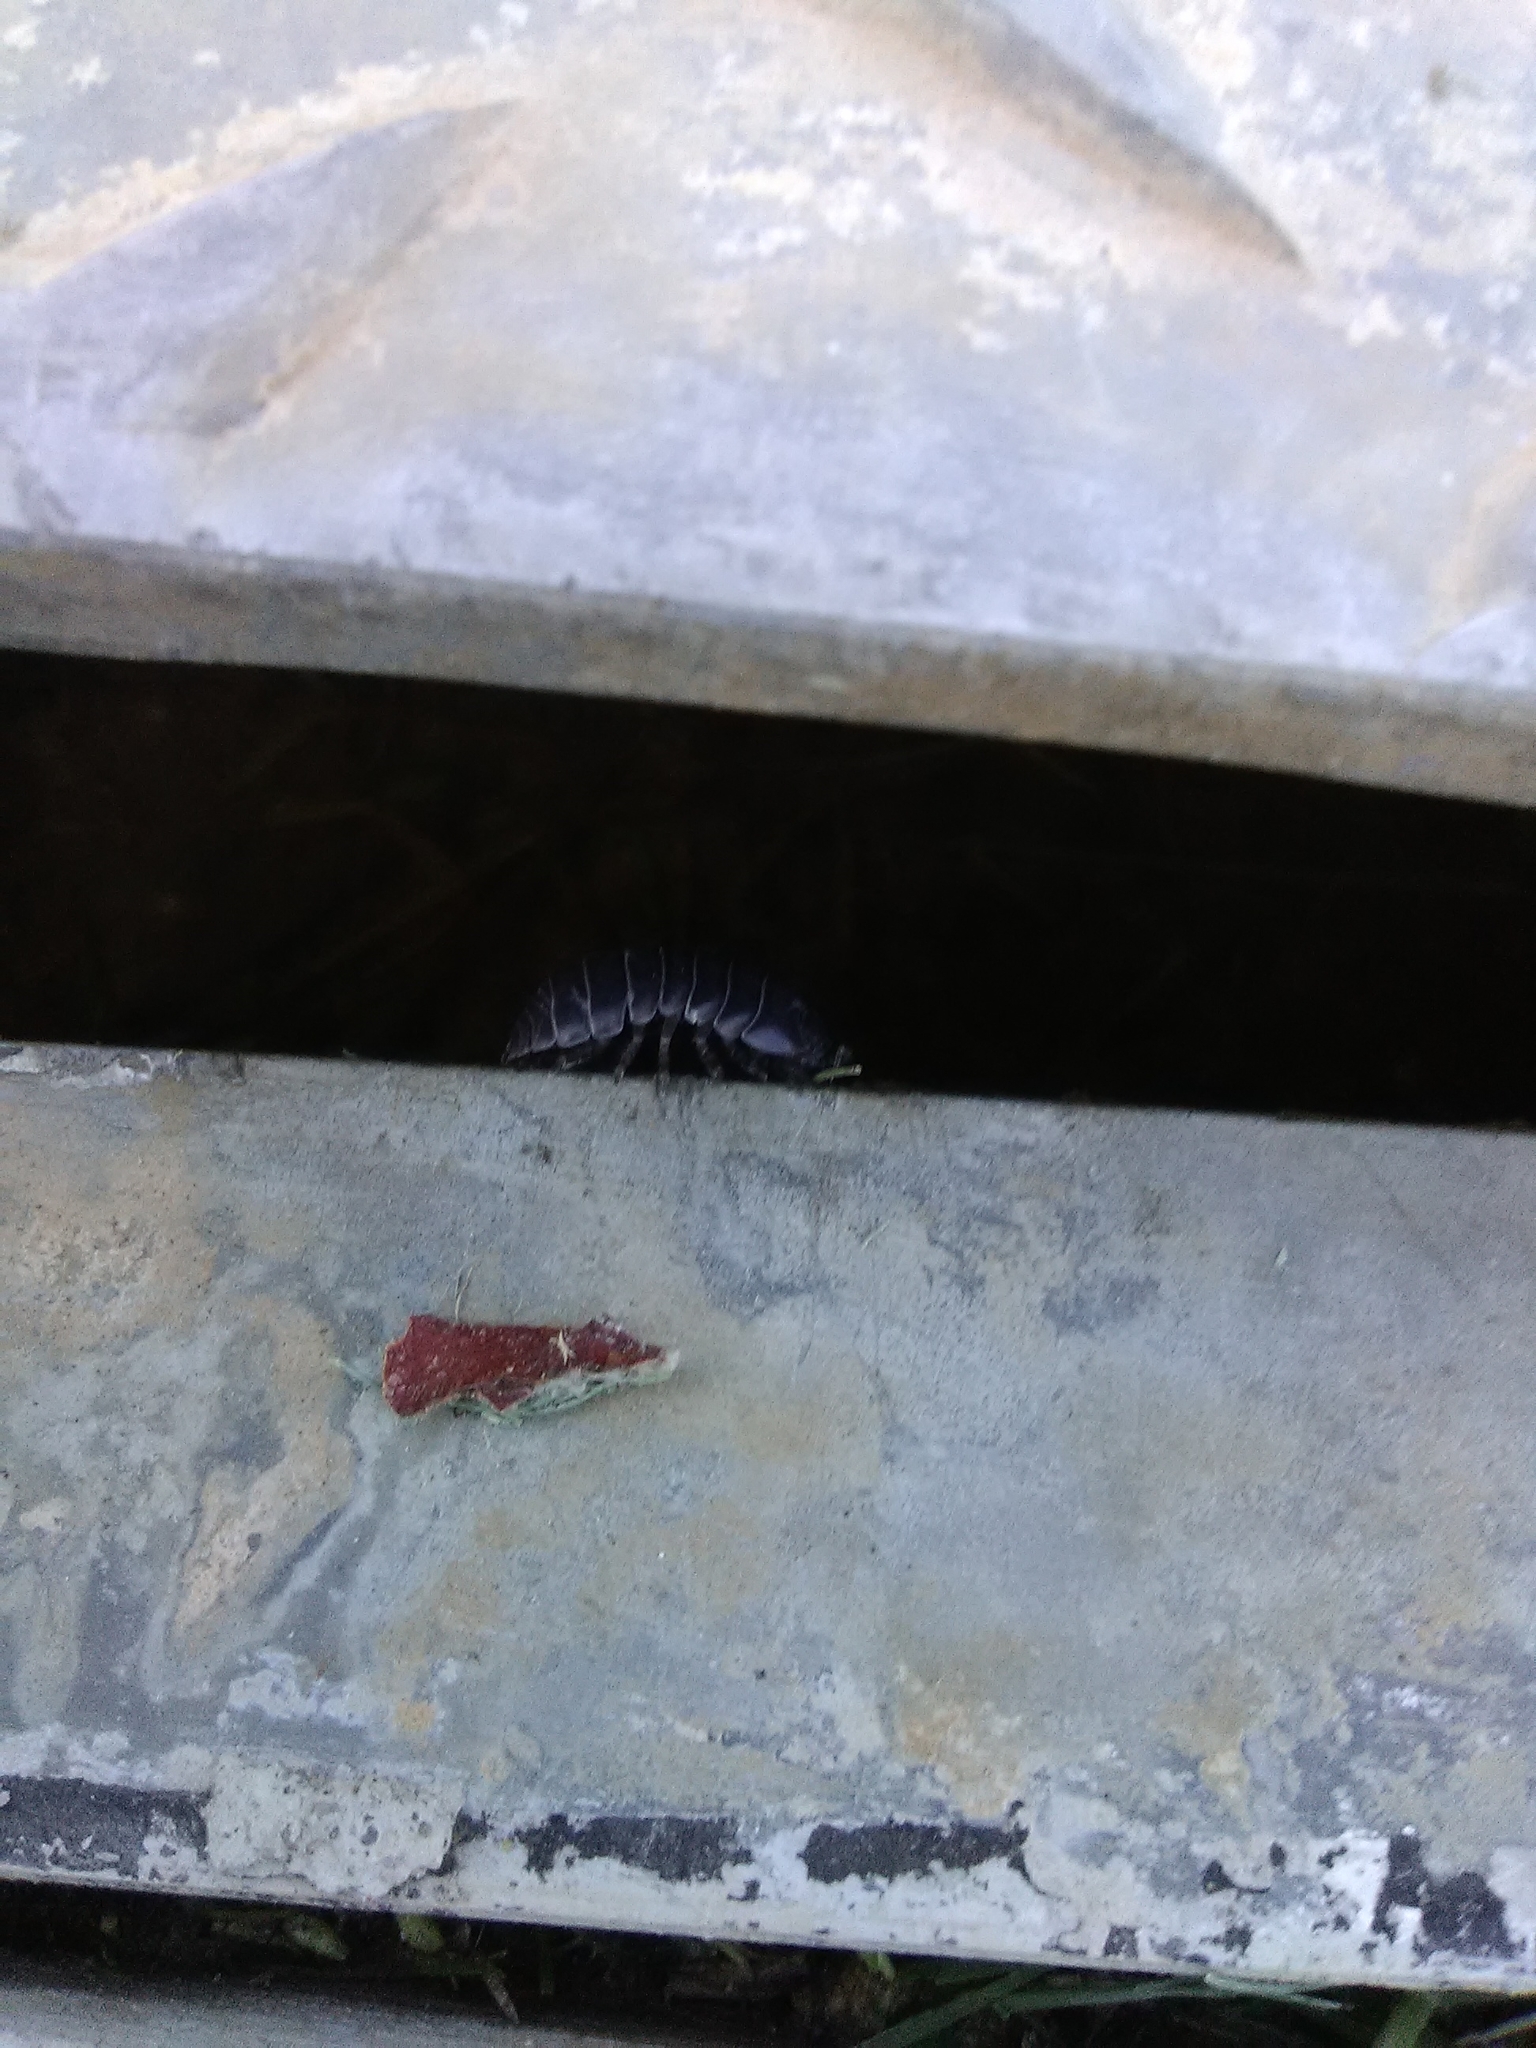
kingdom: Animalia
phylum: Arthropoda
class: Malacostraca
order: Isopoda
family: Armadillidiidae
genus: Armadillidium
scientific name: Armadillidium vulgare
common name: Common pill woodlouse
